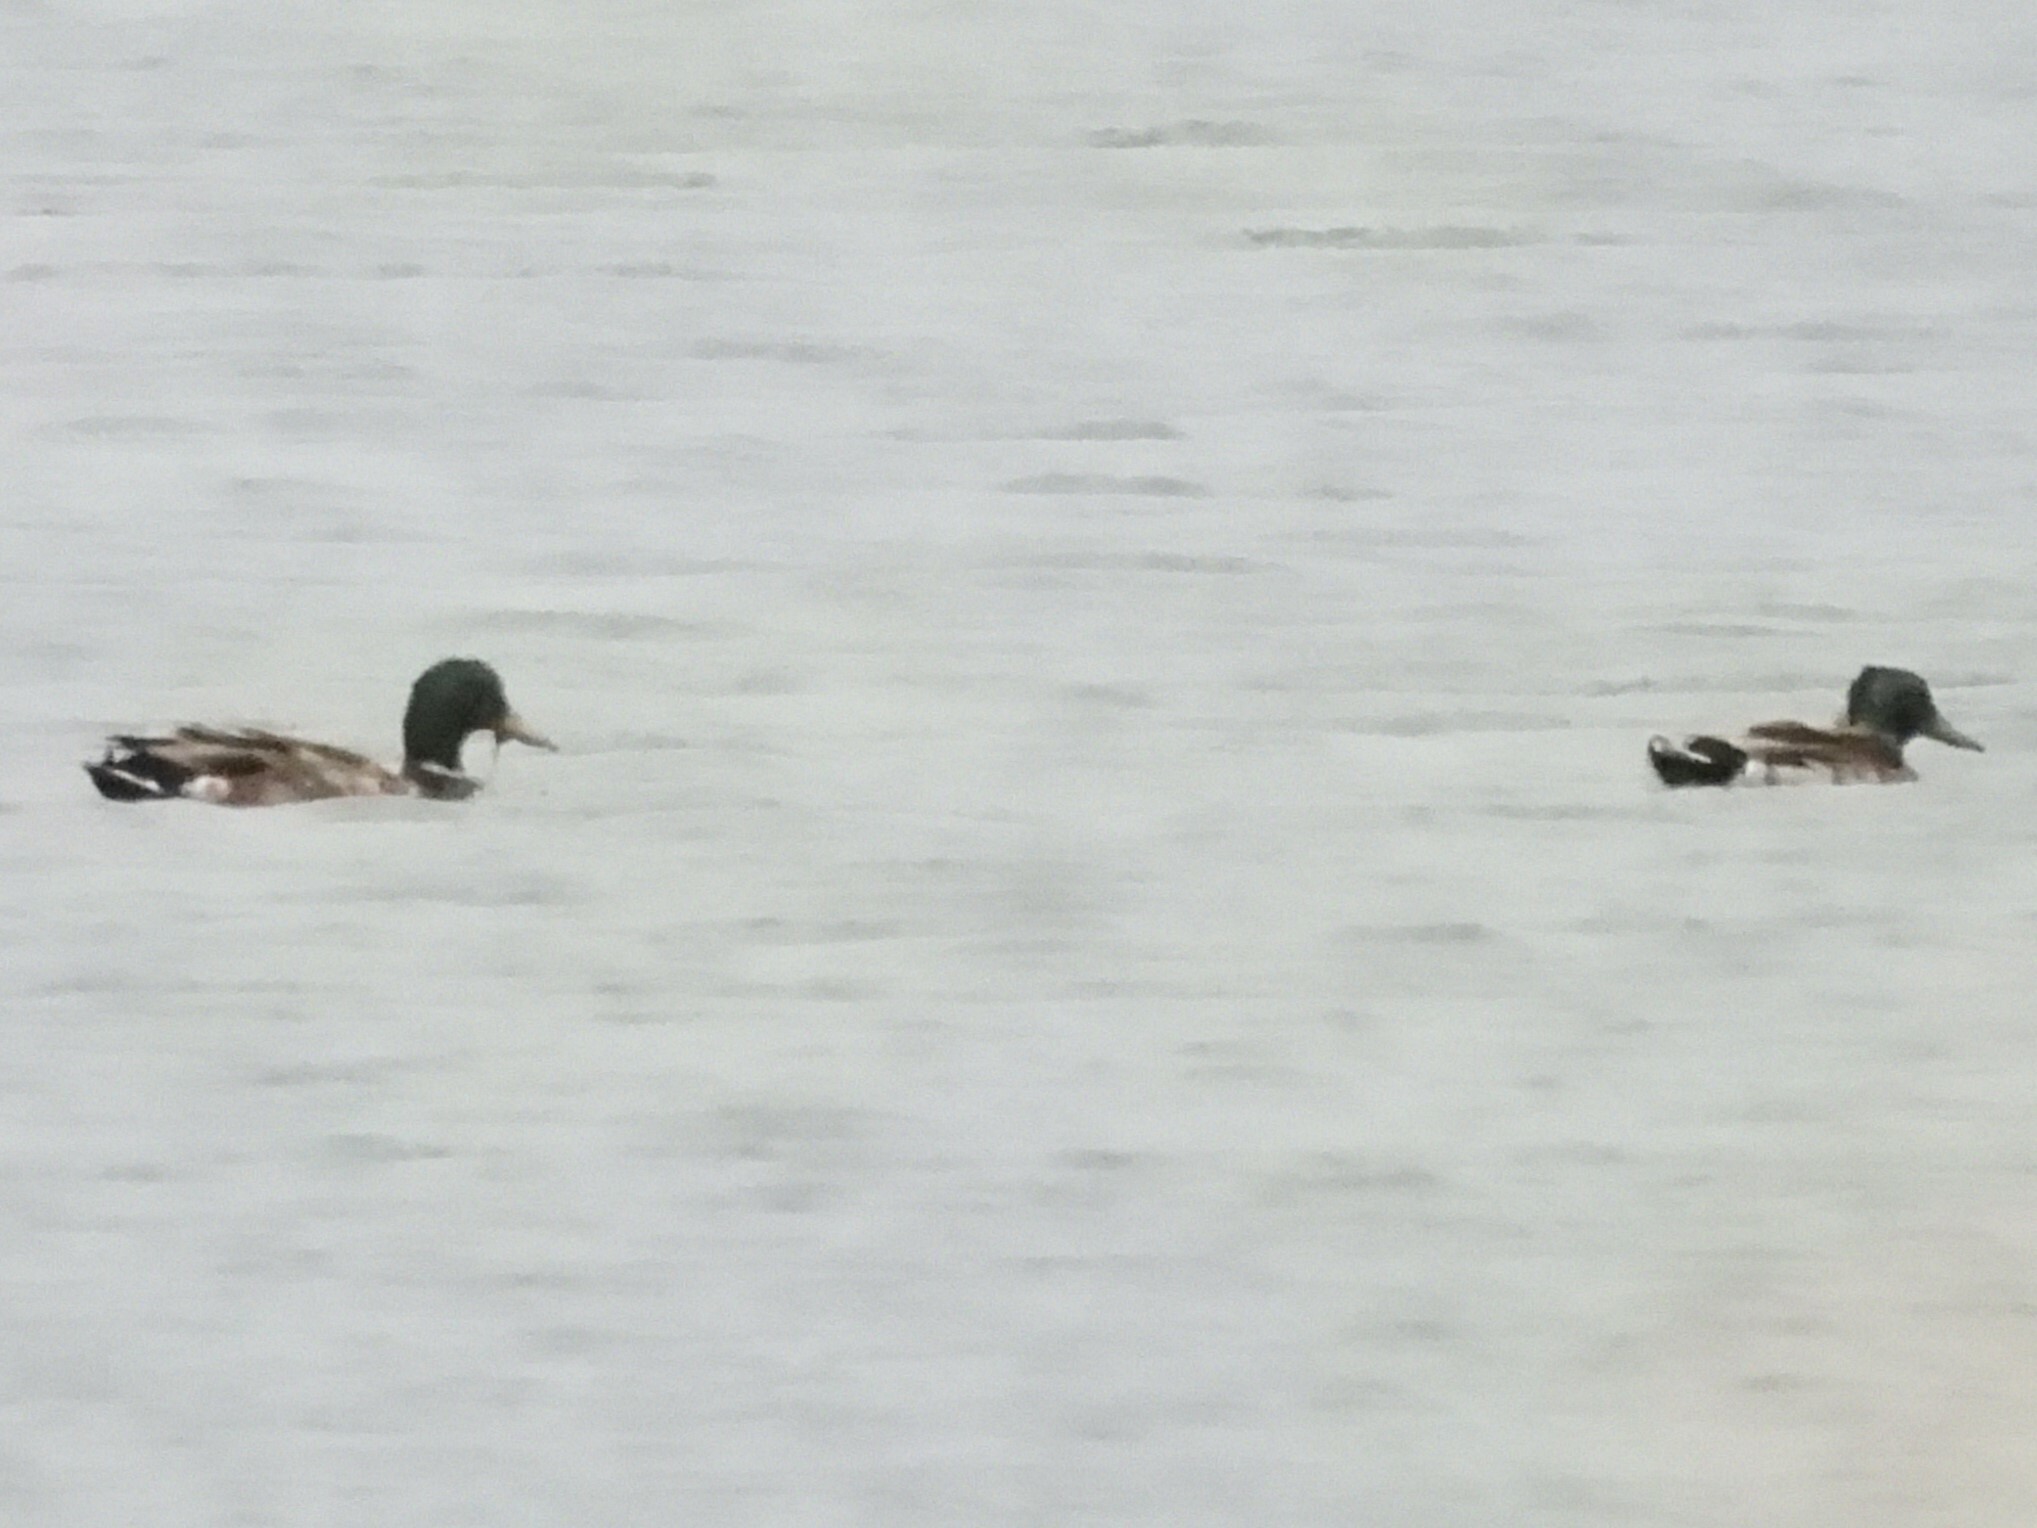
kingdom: Animalia
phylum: Chordata
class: Aves
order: Anseriformes
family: Anatidae
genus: Anas
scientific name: Anas platyrhynchos
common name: Mallard
